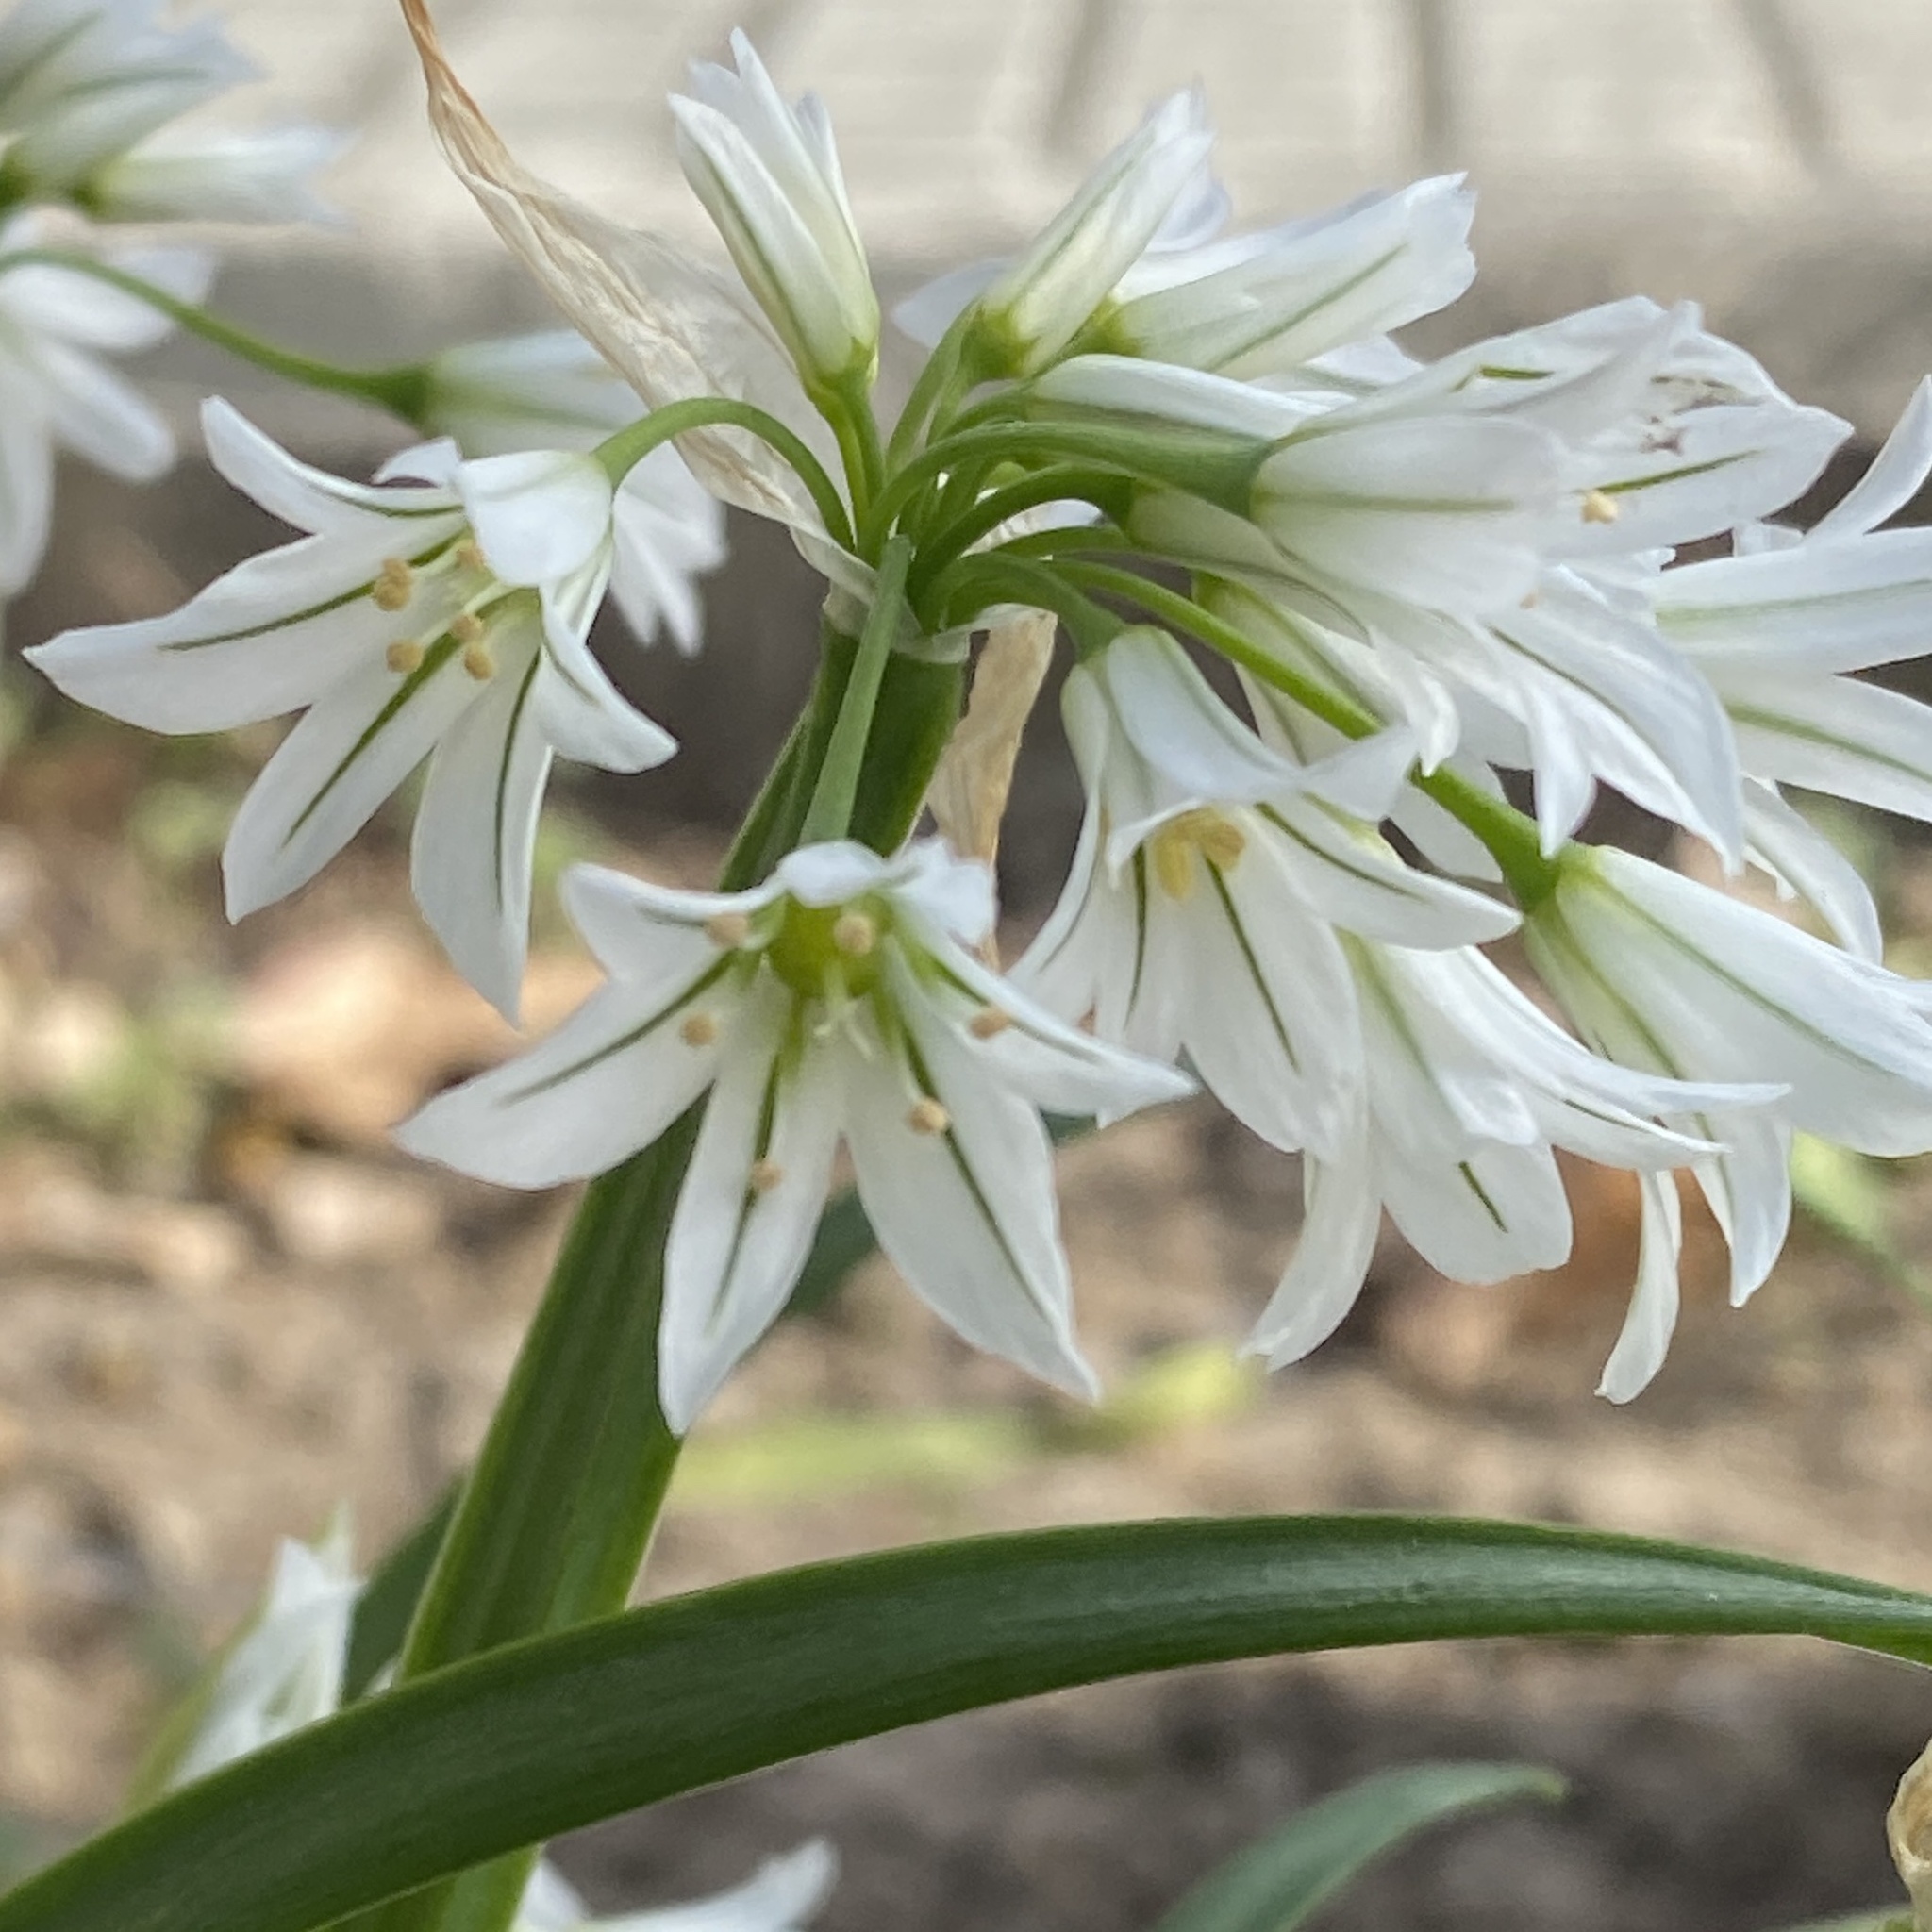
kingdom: Plantae
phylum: Tracheophyta
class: Liliopsida
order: Asparagales
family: Amaryllidaceae
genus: Allium
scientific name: Allium triquetrum
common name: Three-cornered garlic
